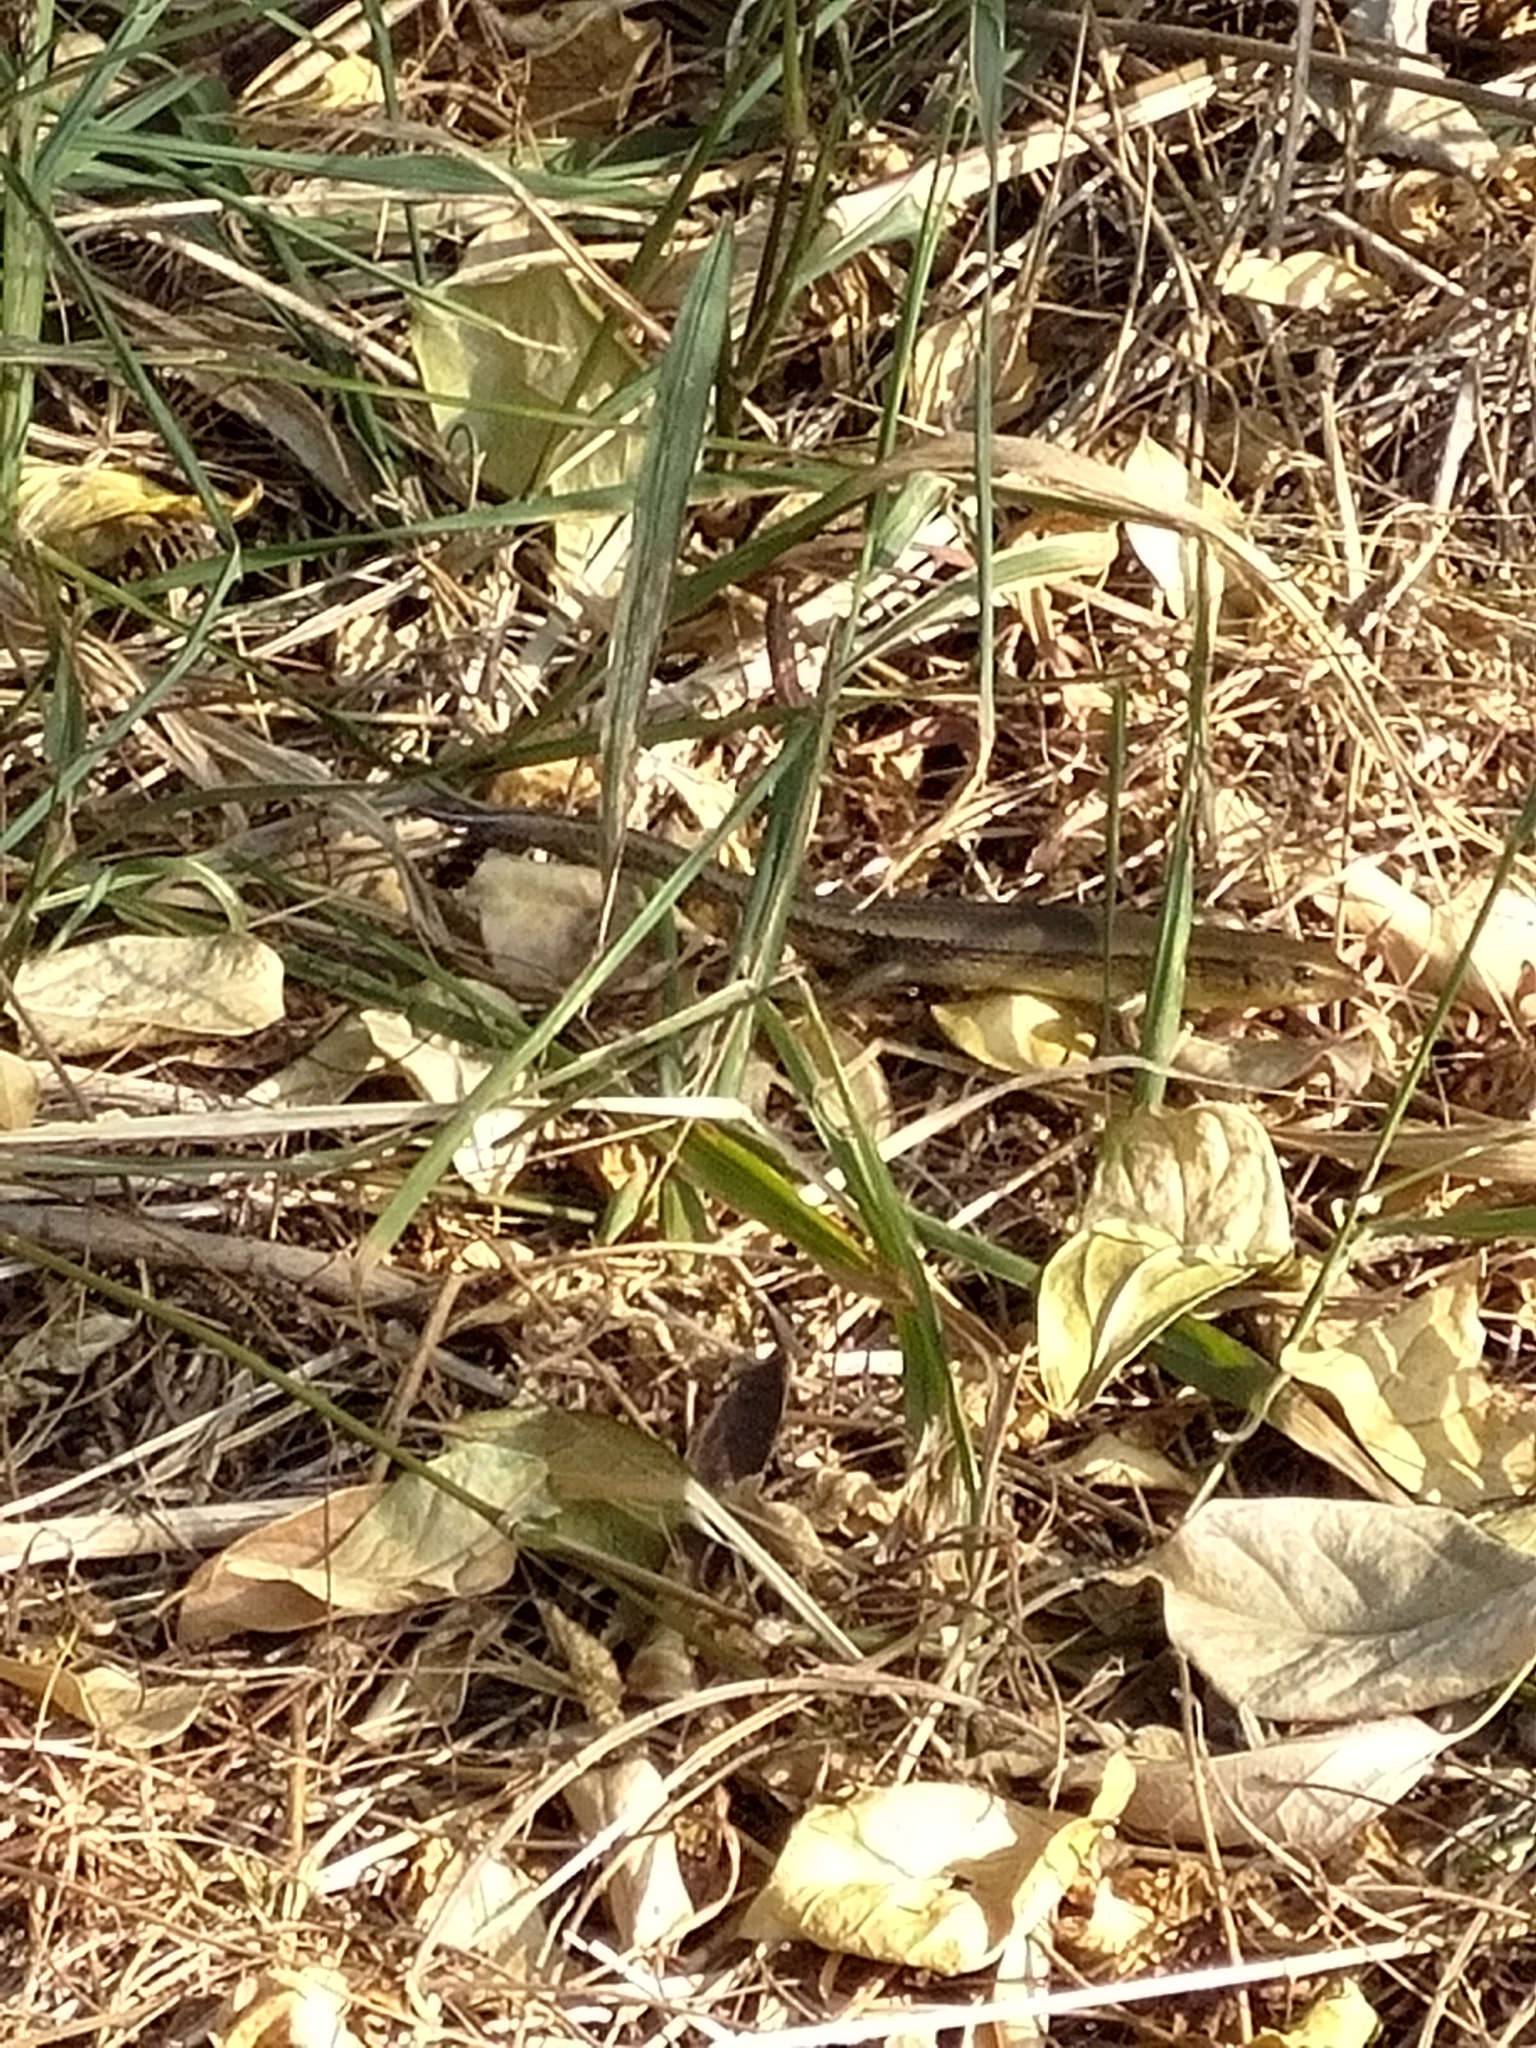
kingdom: Animalia
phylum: Chordata
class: Squamata
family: Scincidae
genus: Eutropis
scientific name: Eutropis multifasciata
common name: Common mabuya
